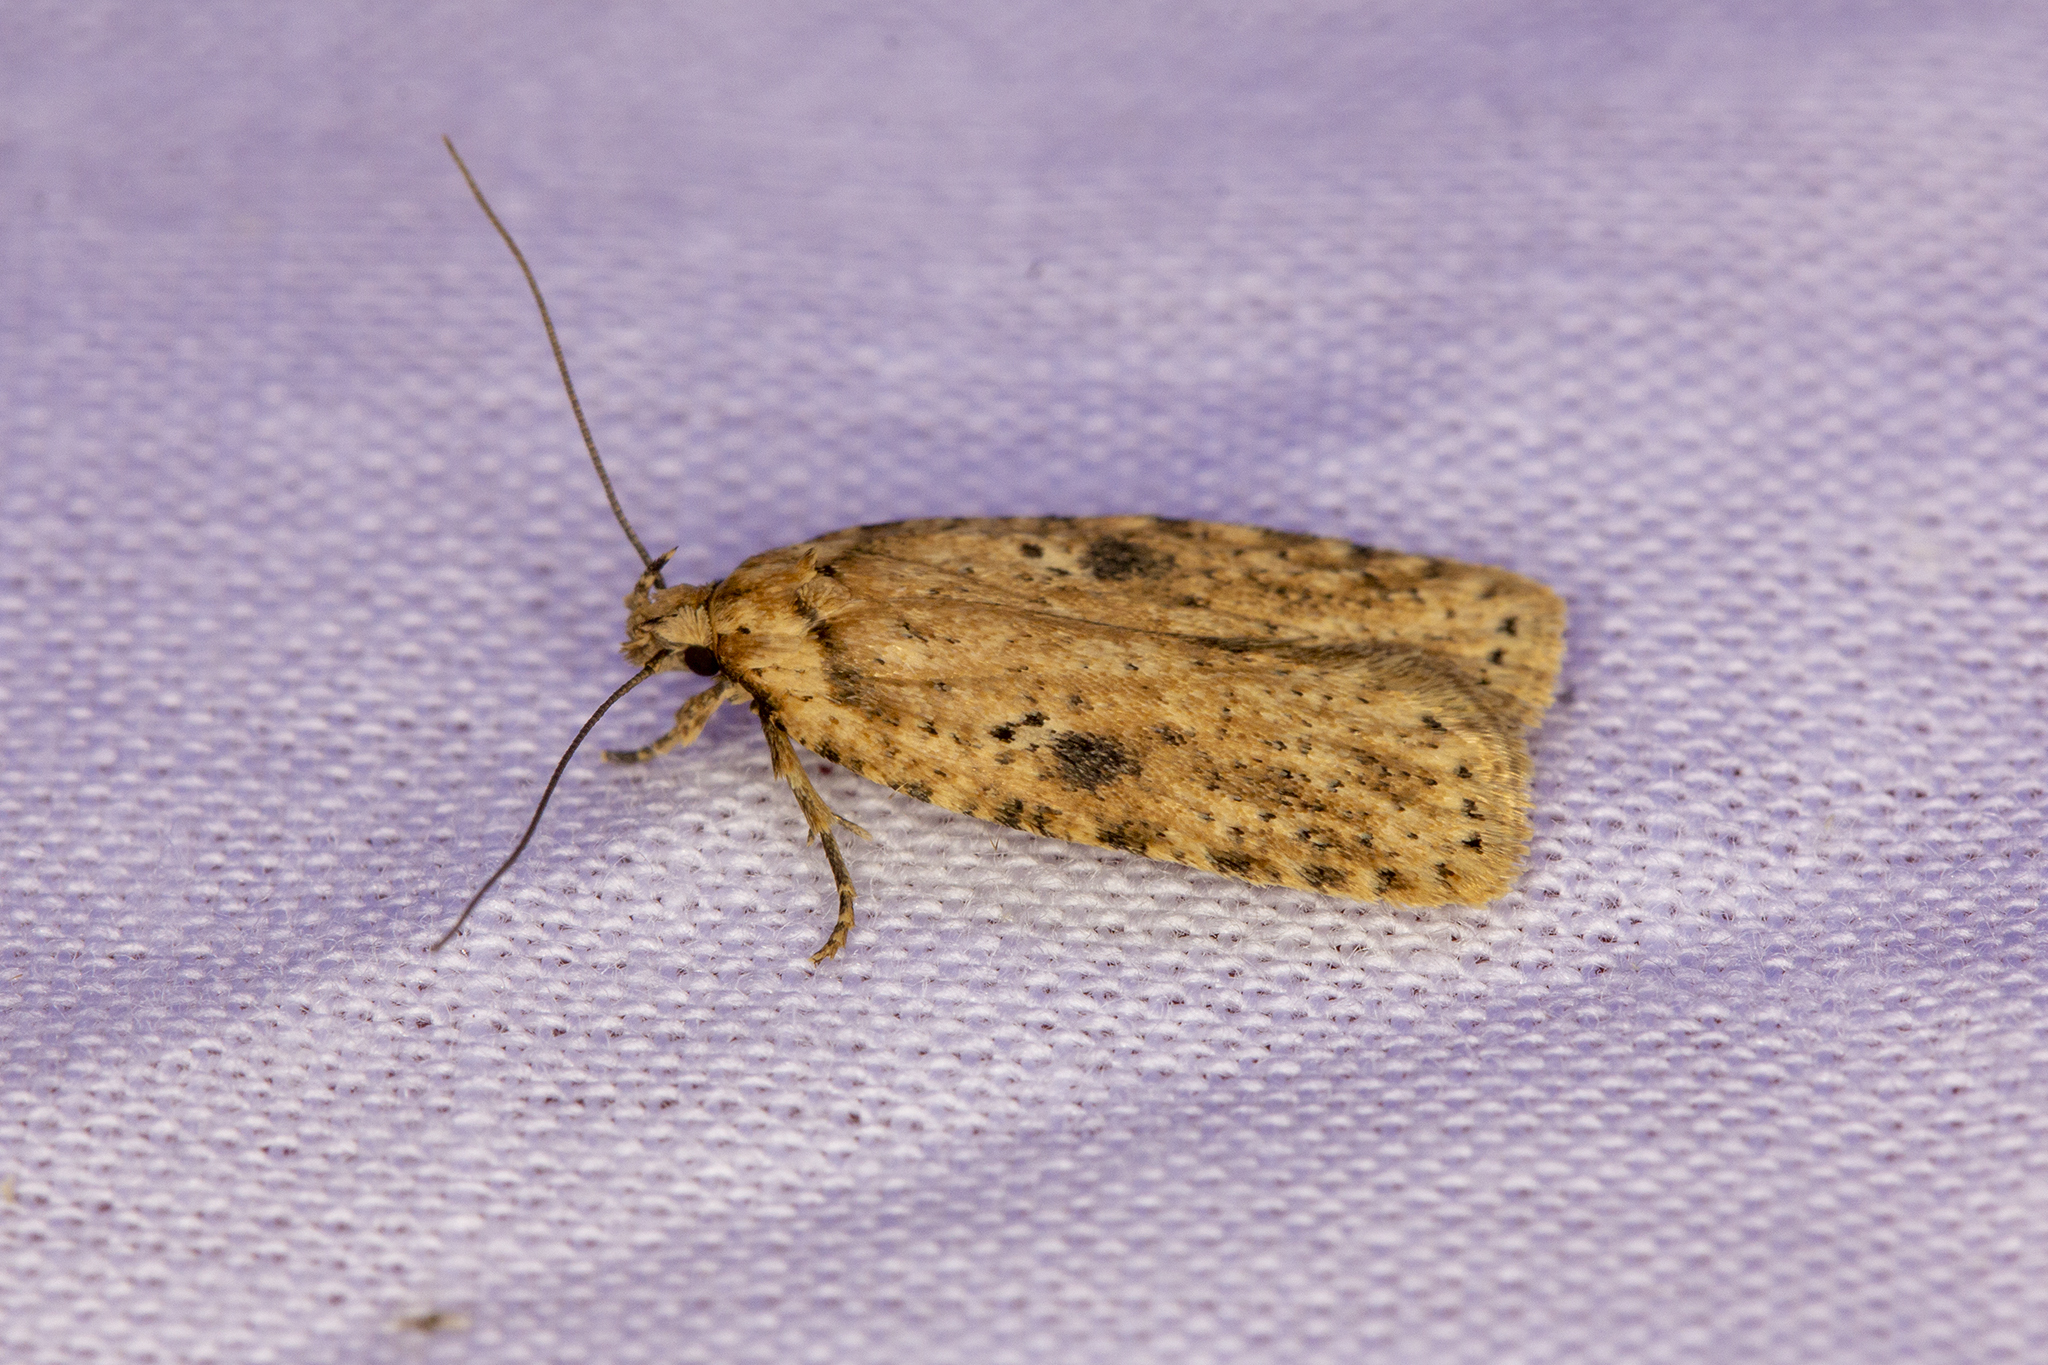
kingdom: Animalia
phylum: Arthropoda
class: Insecta
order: Lepidoptera
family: Depressariidae
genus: Agonopterix
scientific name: Agonopterix arenella
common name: Brindled flat-body
